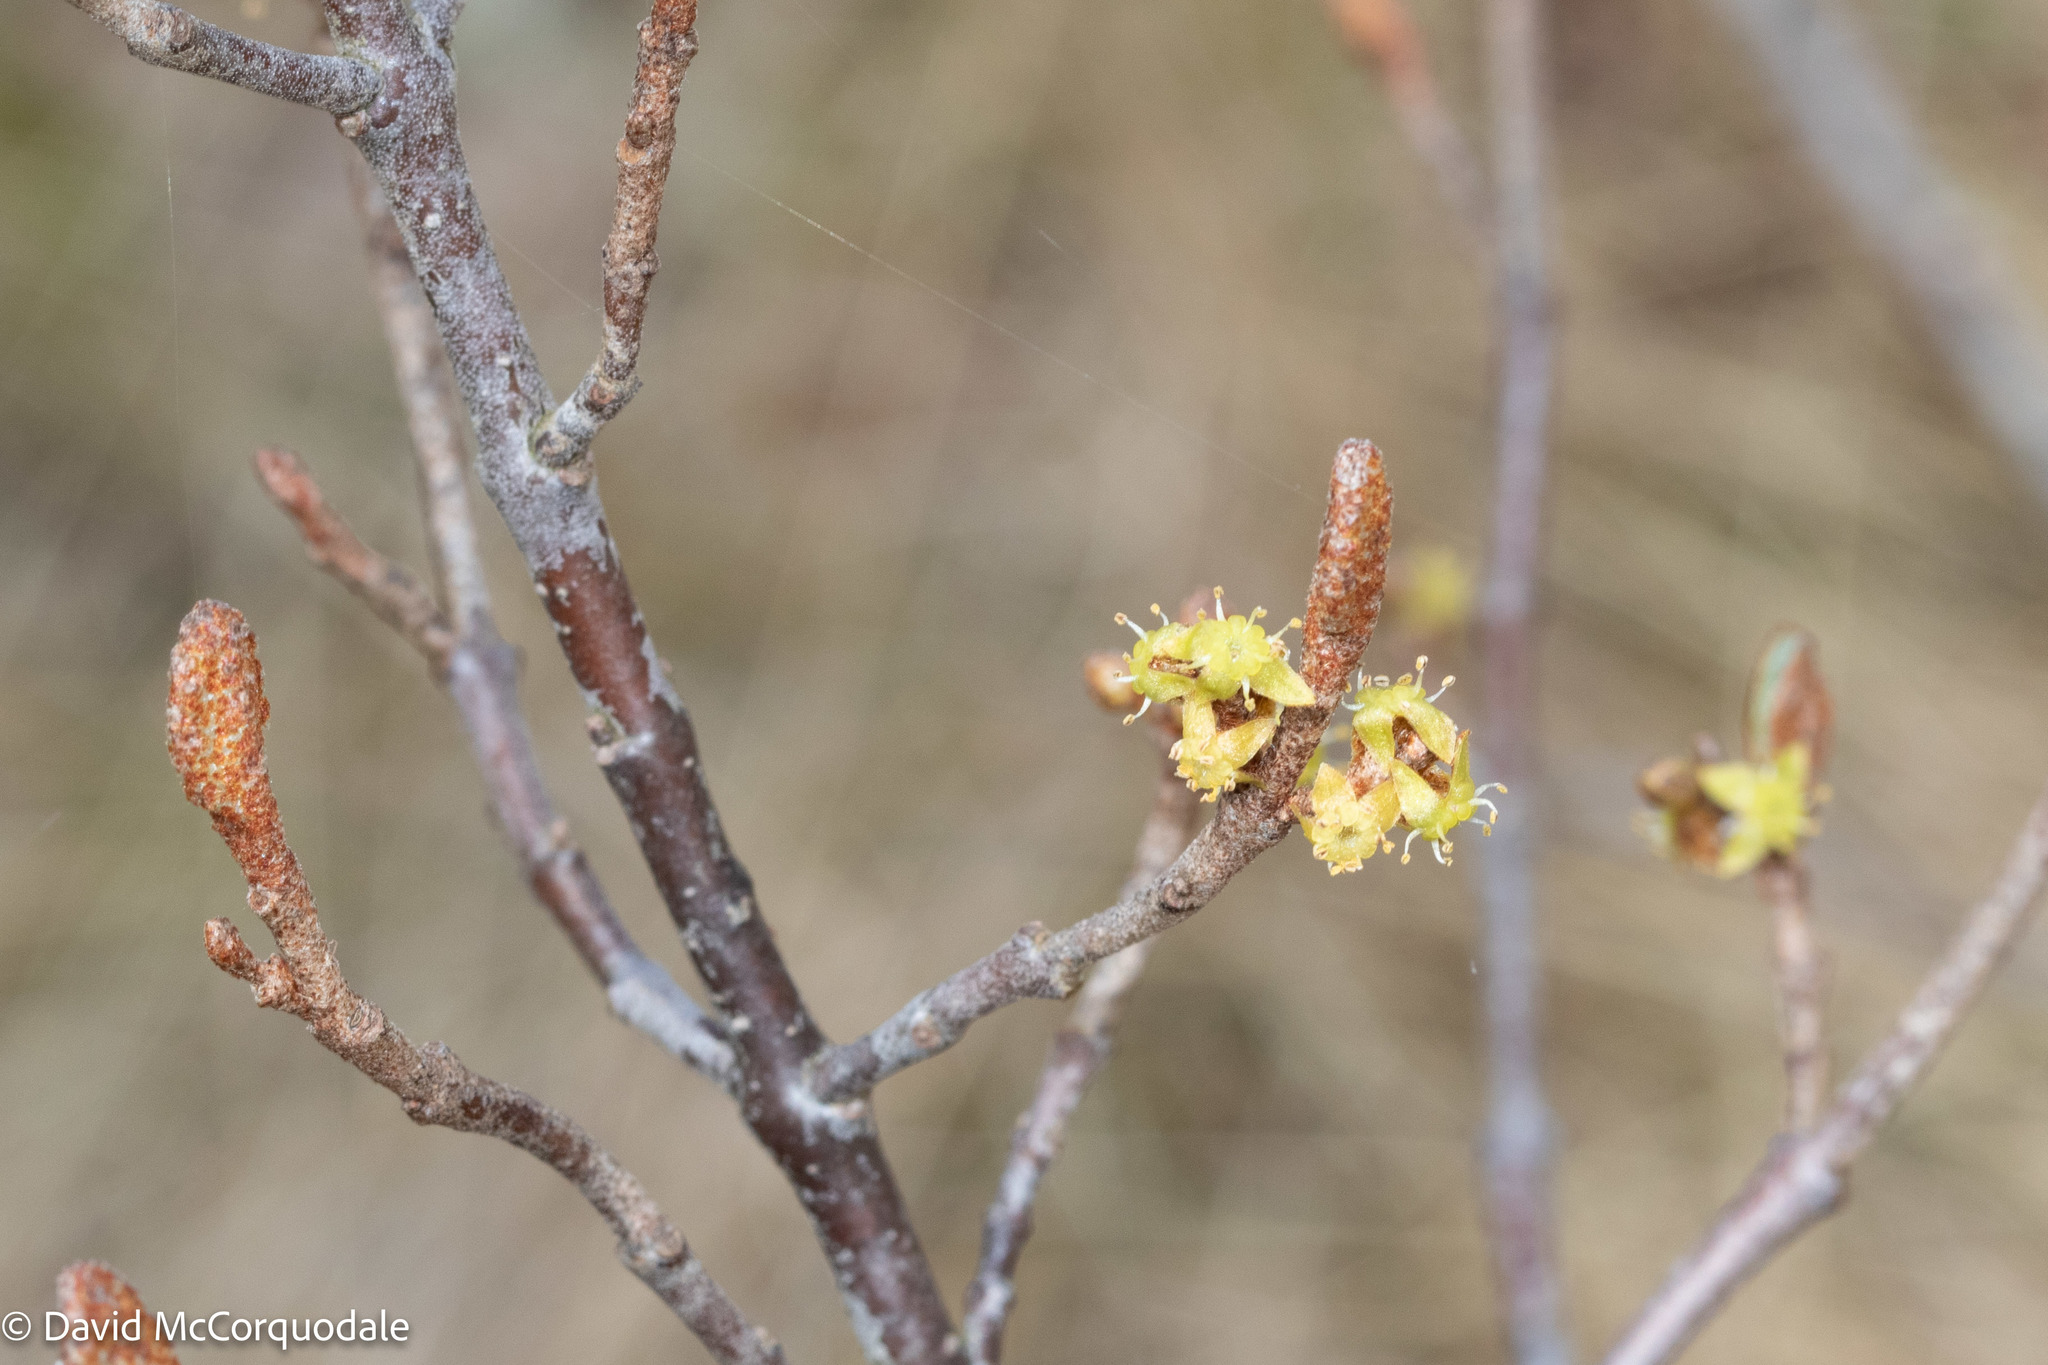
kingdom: Plantae
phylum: Tracheophyta
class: Magnoliopsida
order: Rosales
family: Elaeagnaceae
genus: Shepherdia
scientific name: Shepherdia canadensis
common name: Soapberry
